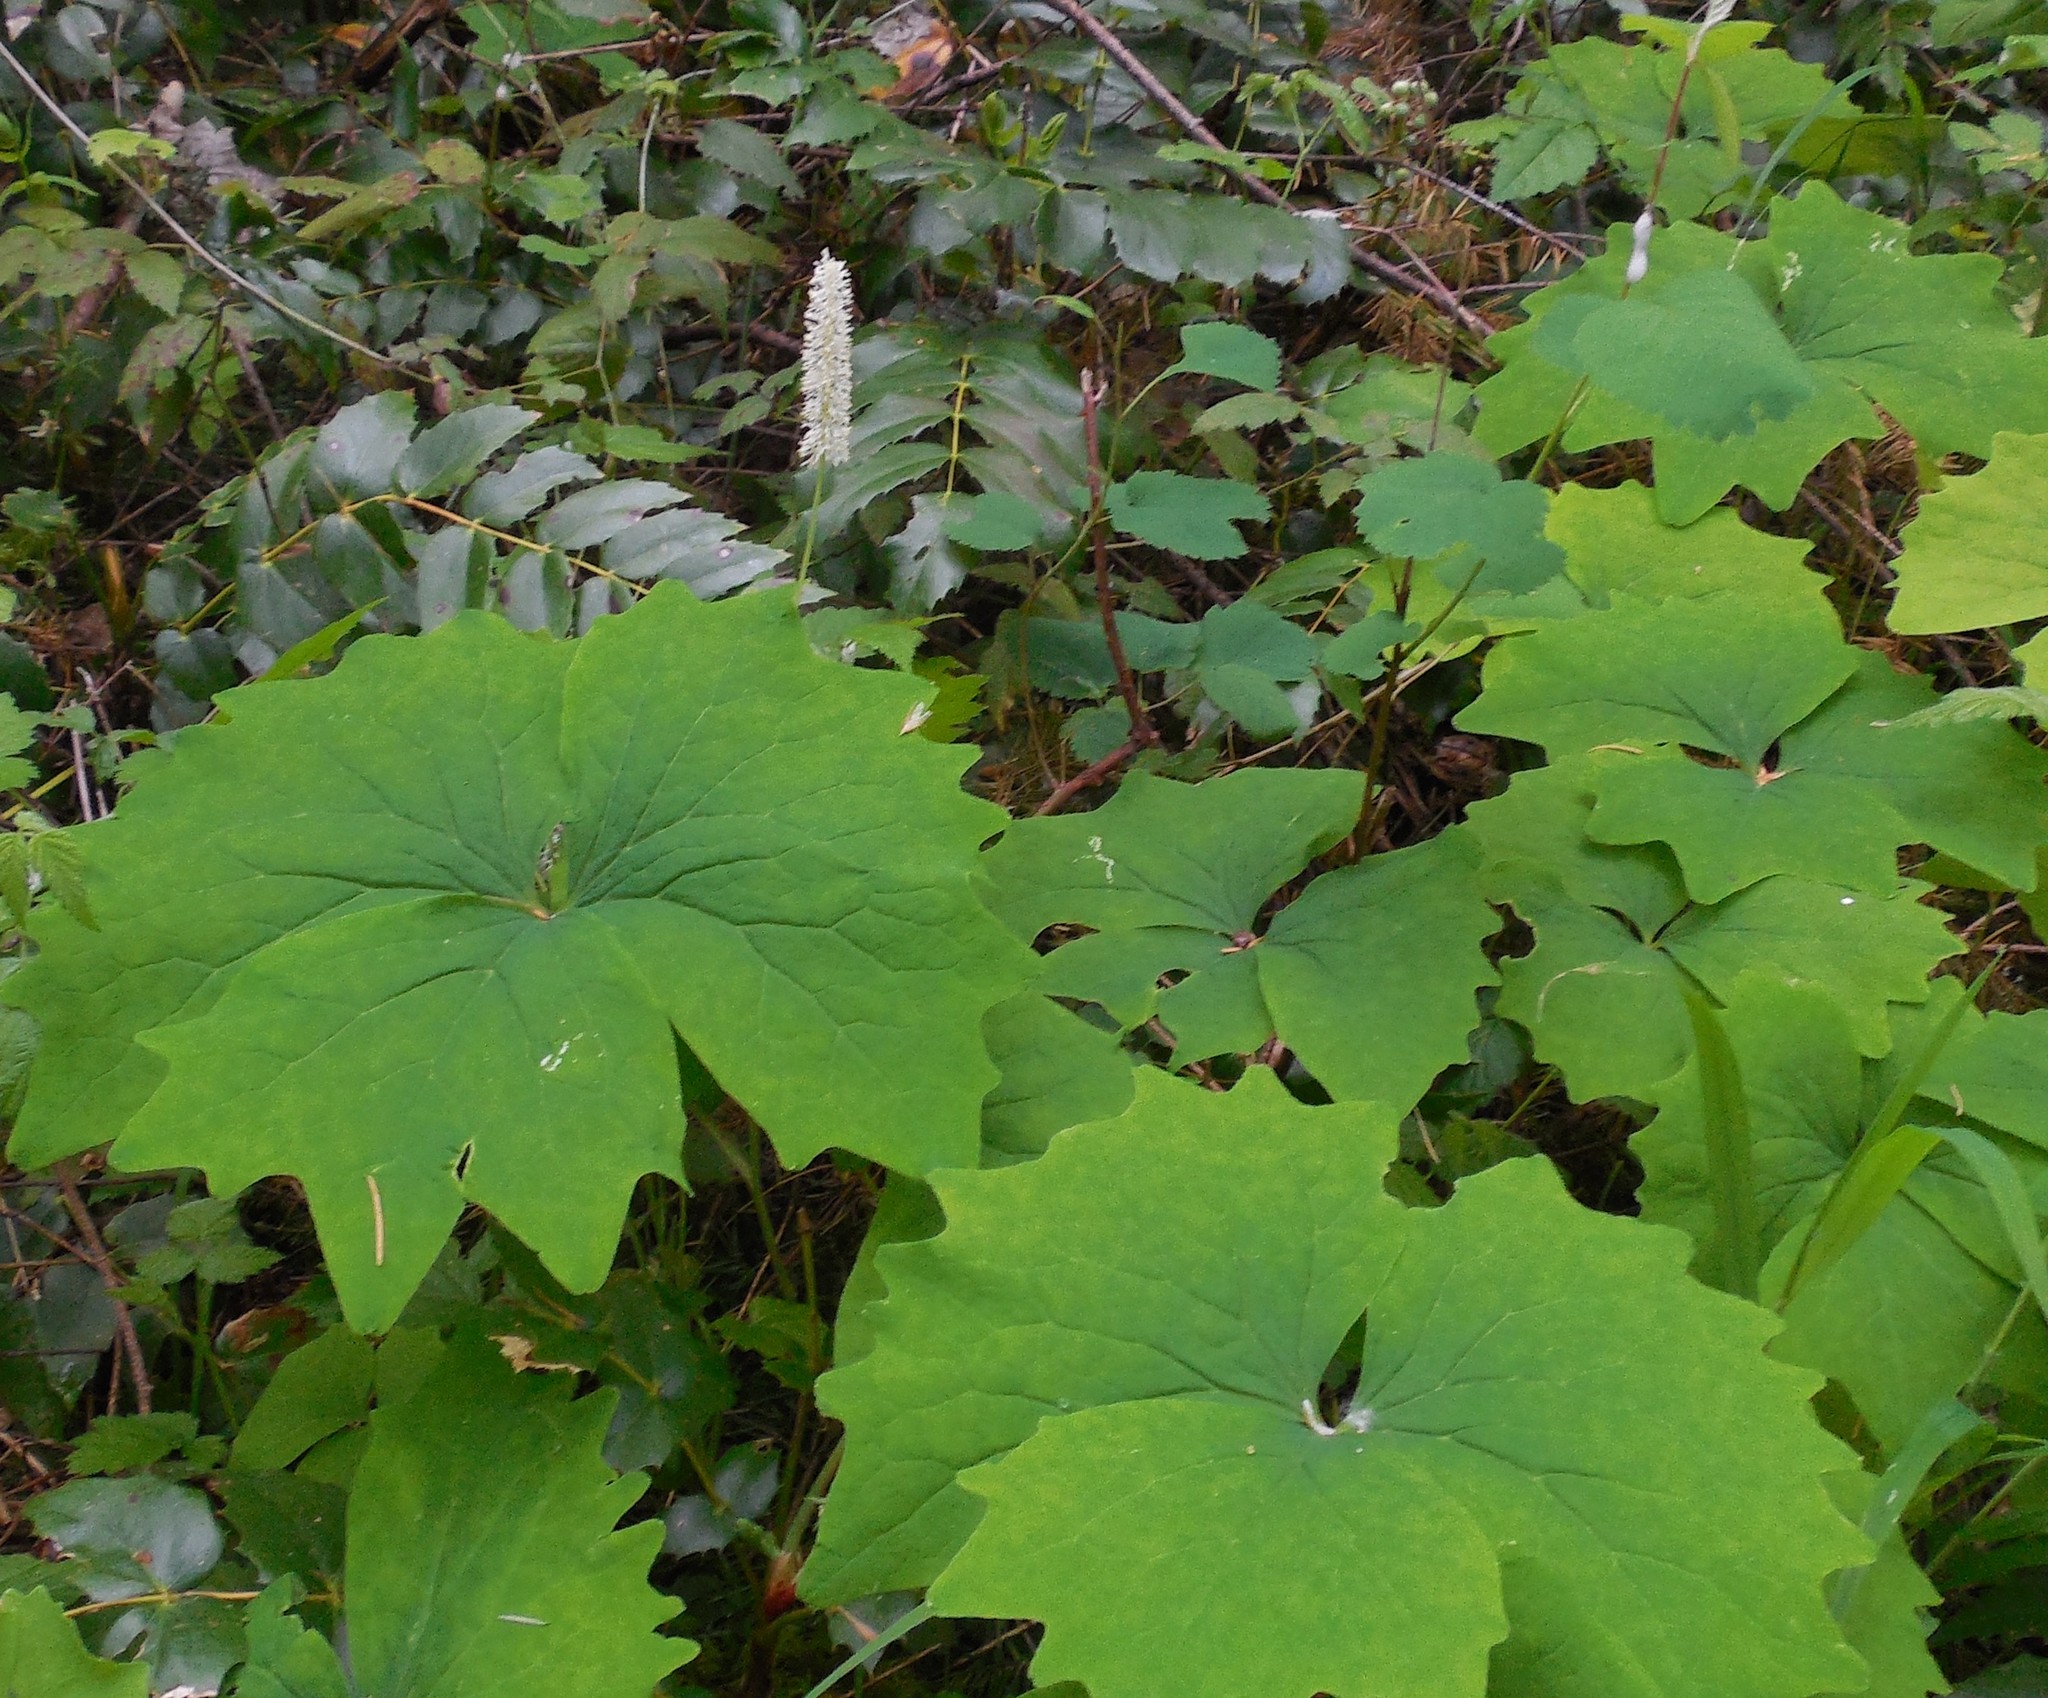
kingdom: Plantae
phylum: Tracheophyta
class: Magnoliopsida
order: Ranunculales
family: Berberidaceae
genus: Achlys
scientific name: Achlys triphylla
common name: Vanilla-leaf
